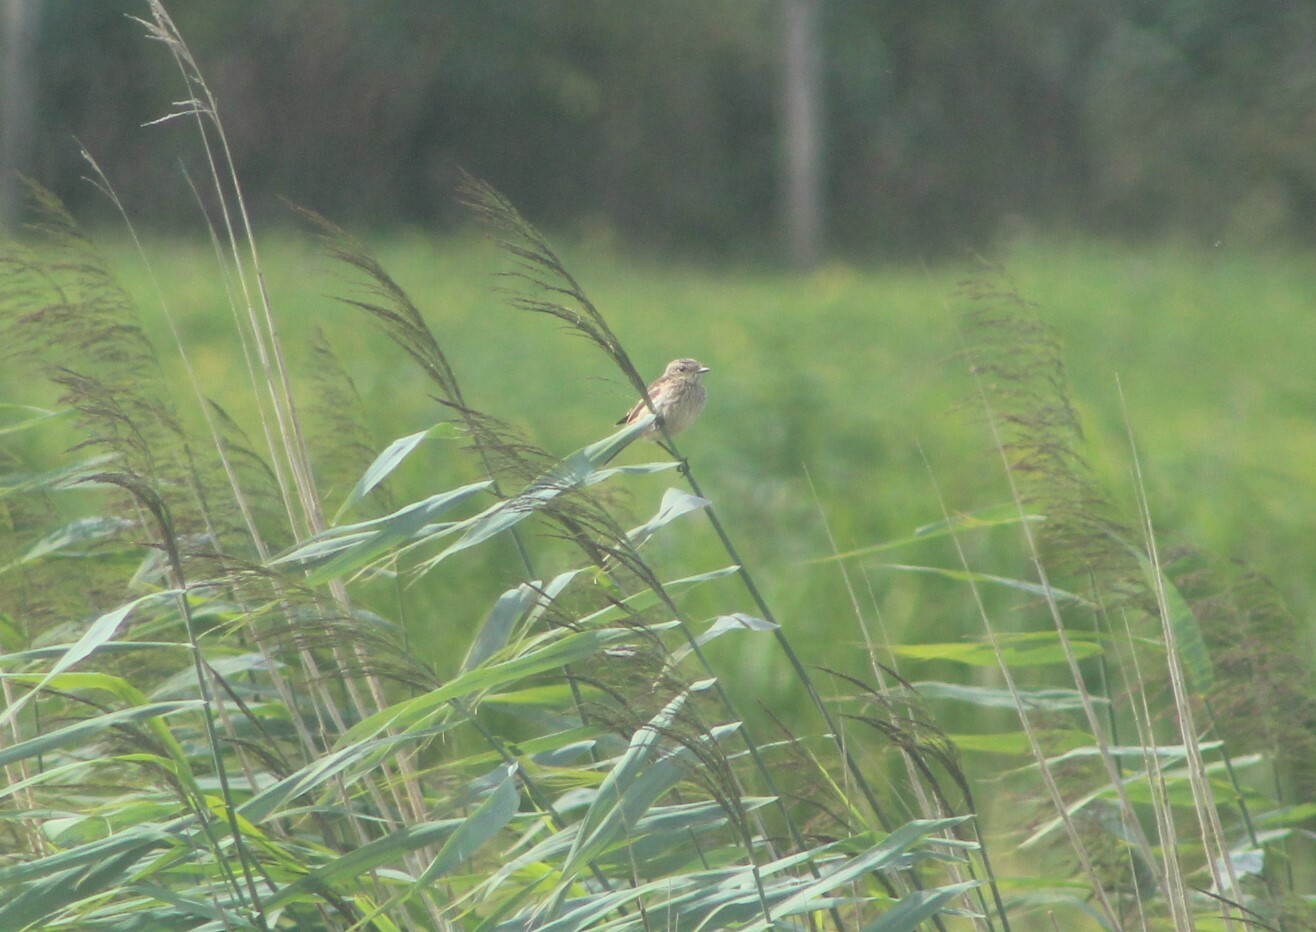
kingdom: Animalia
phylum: Chordata
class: Aves
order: Passeriformes
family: Muscicapidae
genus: Saxicola
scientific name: Saxicola rubicola
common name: European stonechat
